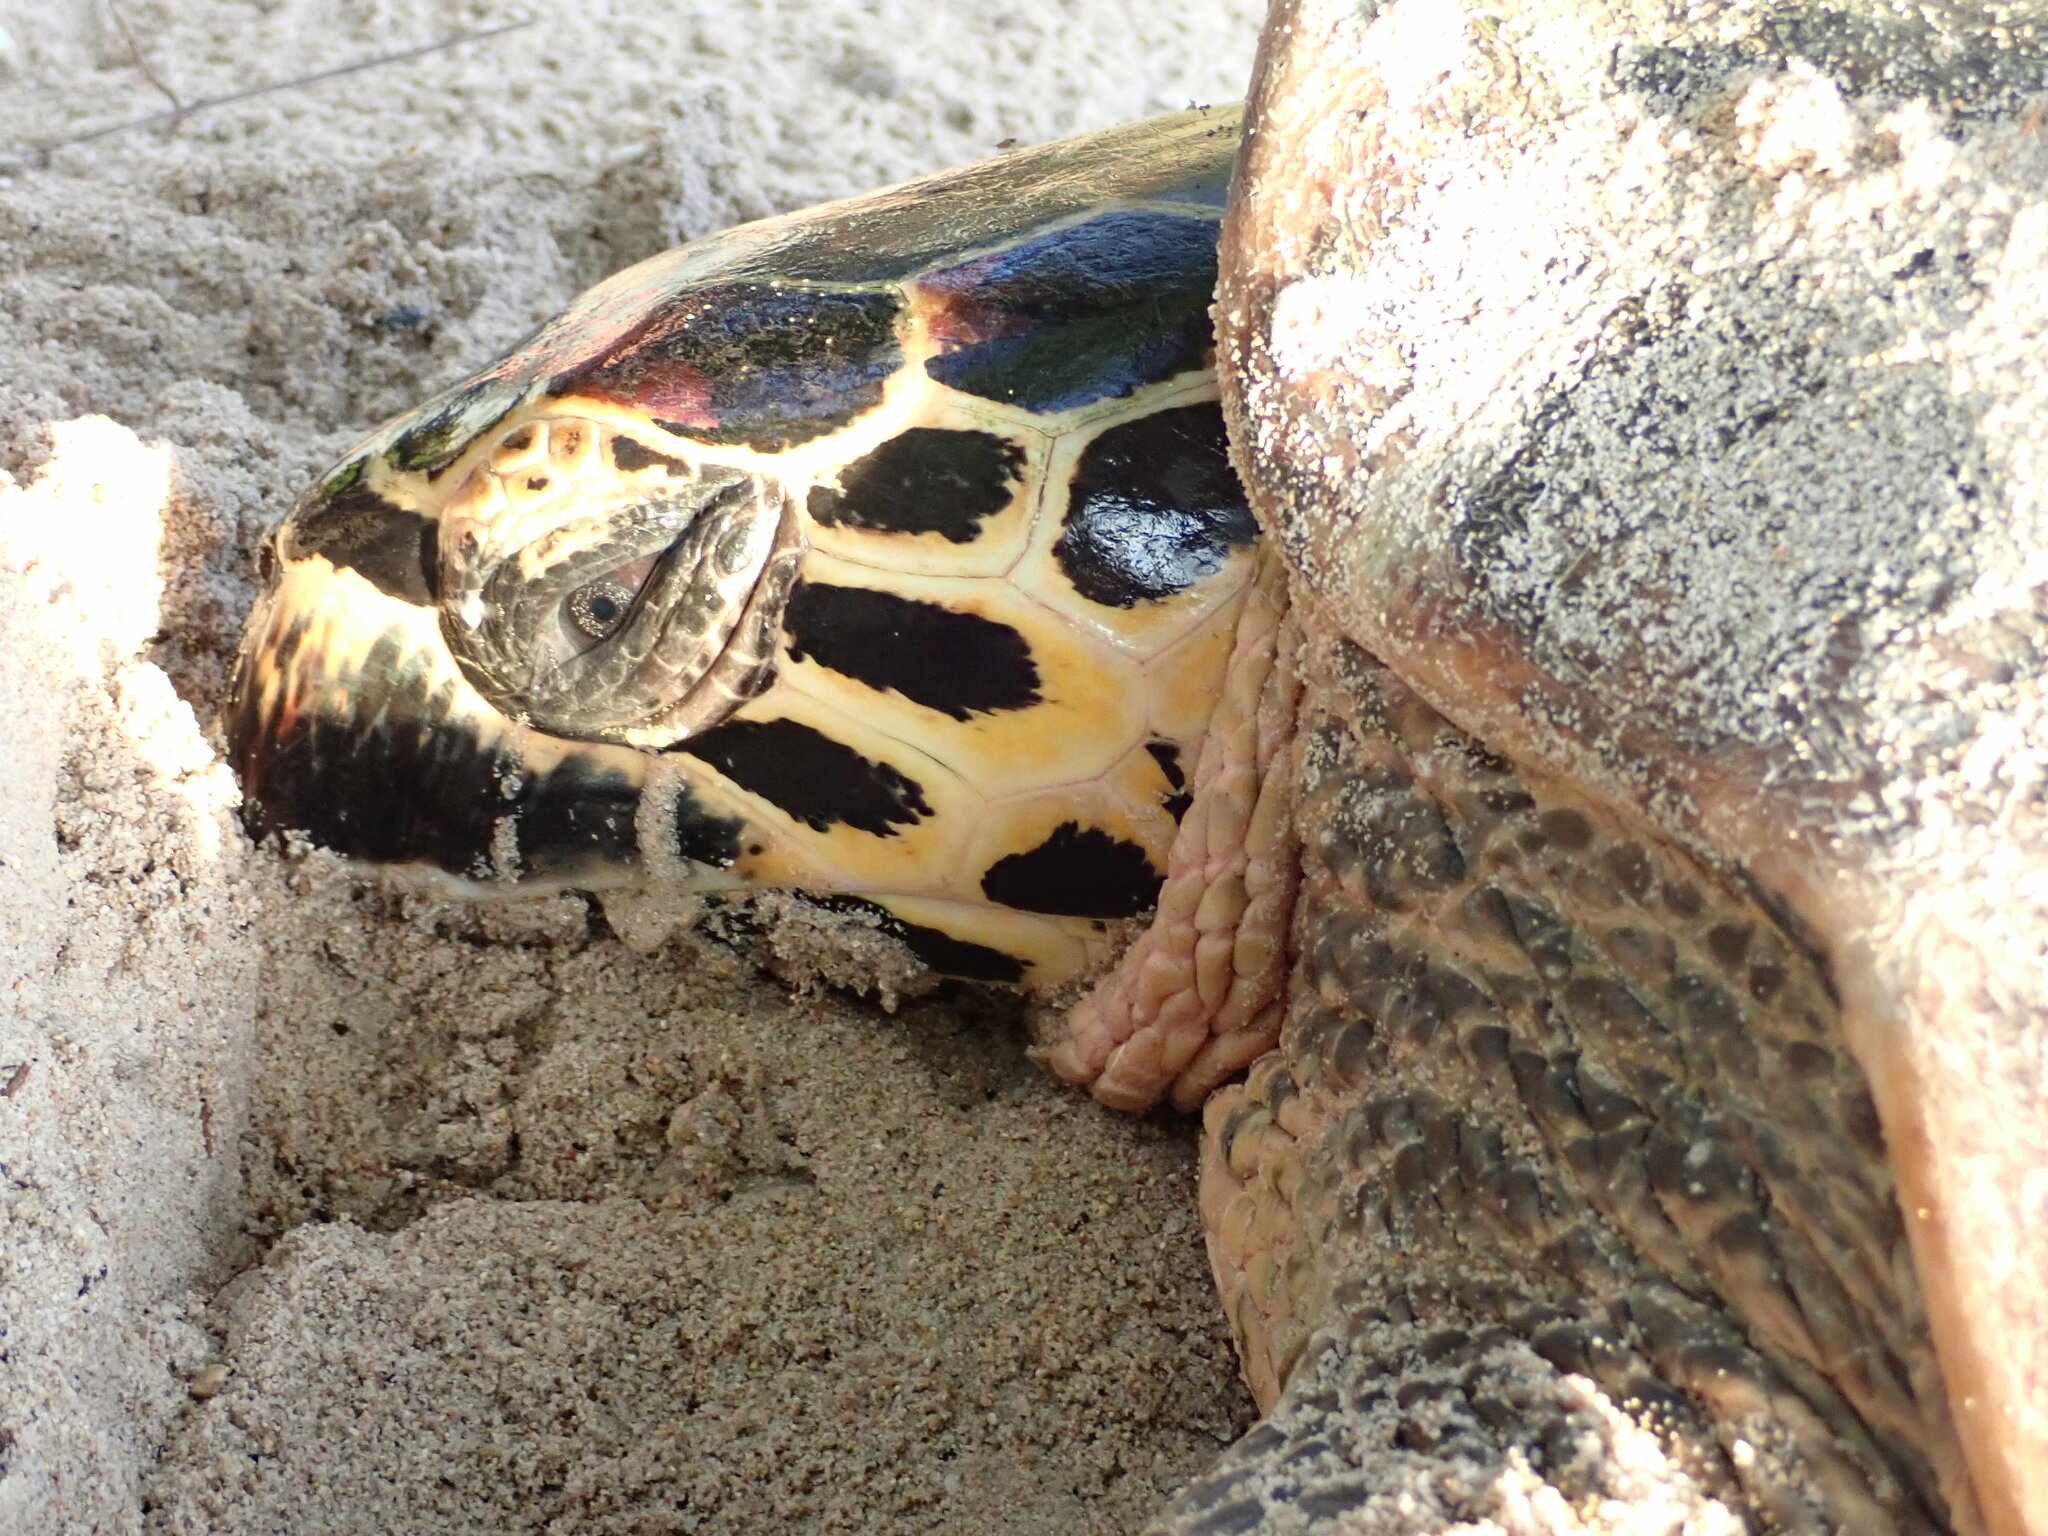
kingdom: Animalia
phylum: Chordata
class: Testudines
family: Cheloniidae
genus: Eretmochelys
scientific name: Eretmochelys imbricata
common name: Hawksbill turtle
